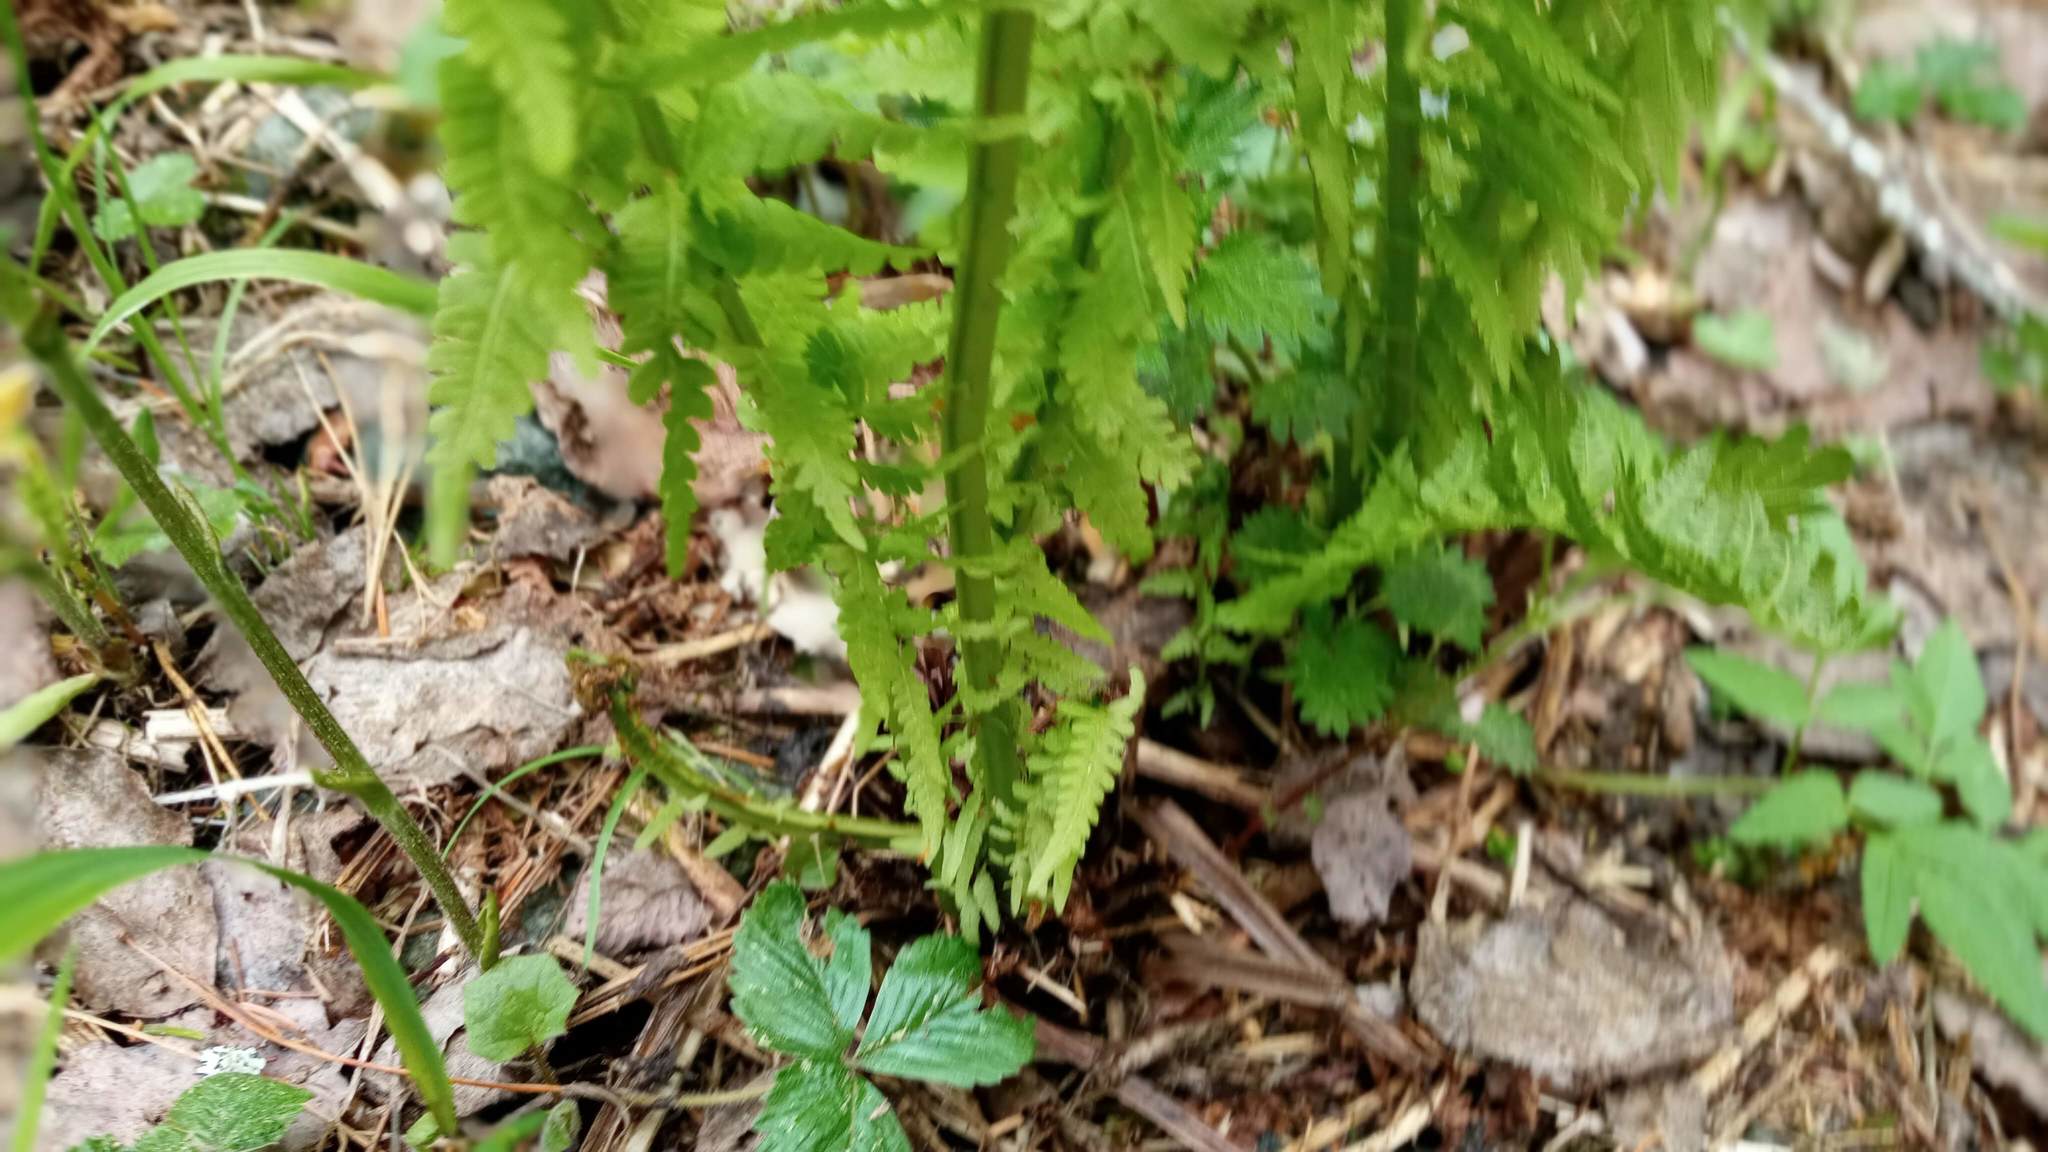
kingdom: Plantae
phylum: Tracheophyta
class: Polypodiopsida
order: Polypodiales
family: Onocleaceae
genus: Matteuccia
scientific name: Matteuccia struthiopteris
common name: Ostrich fern
